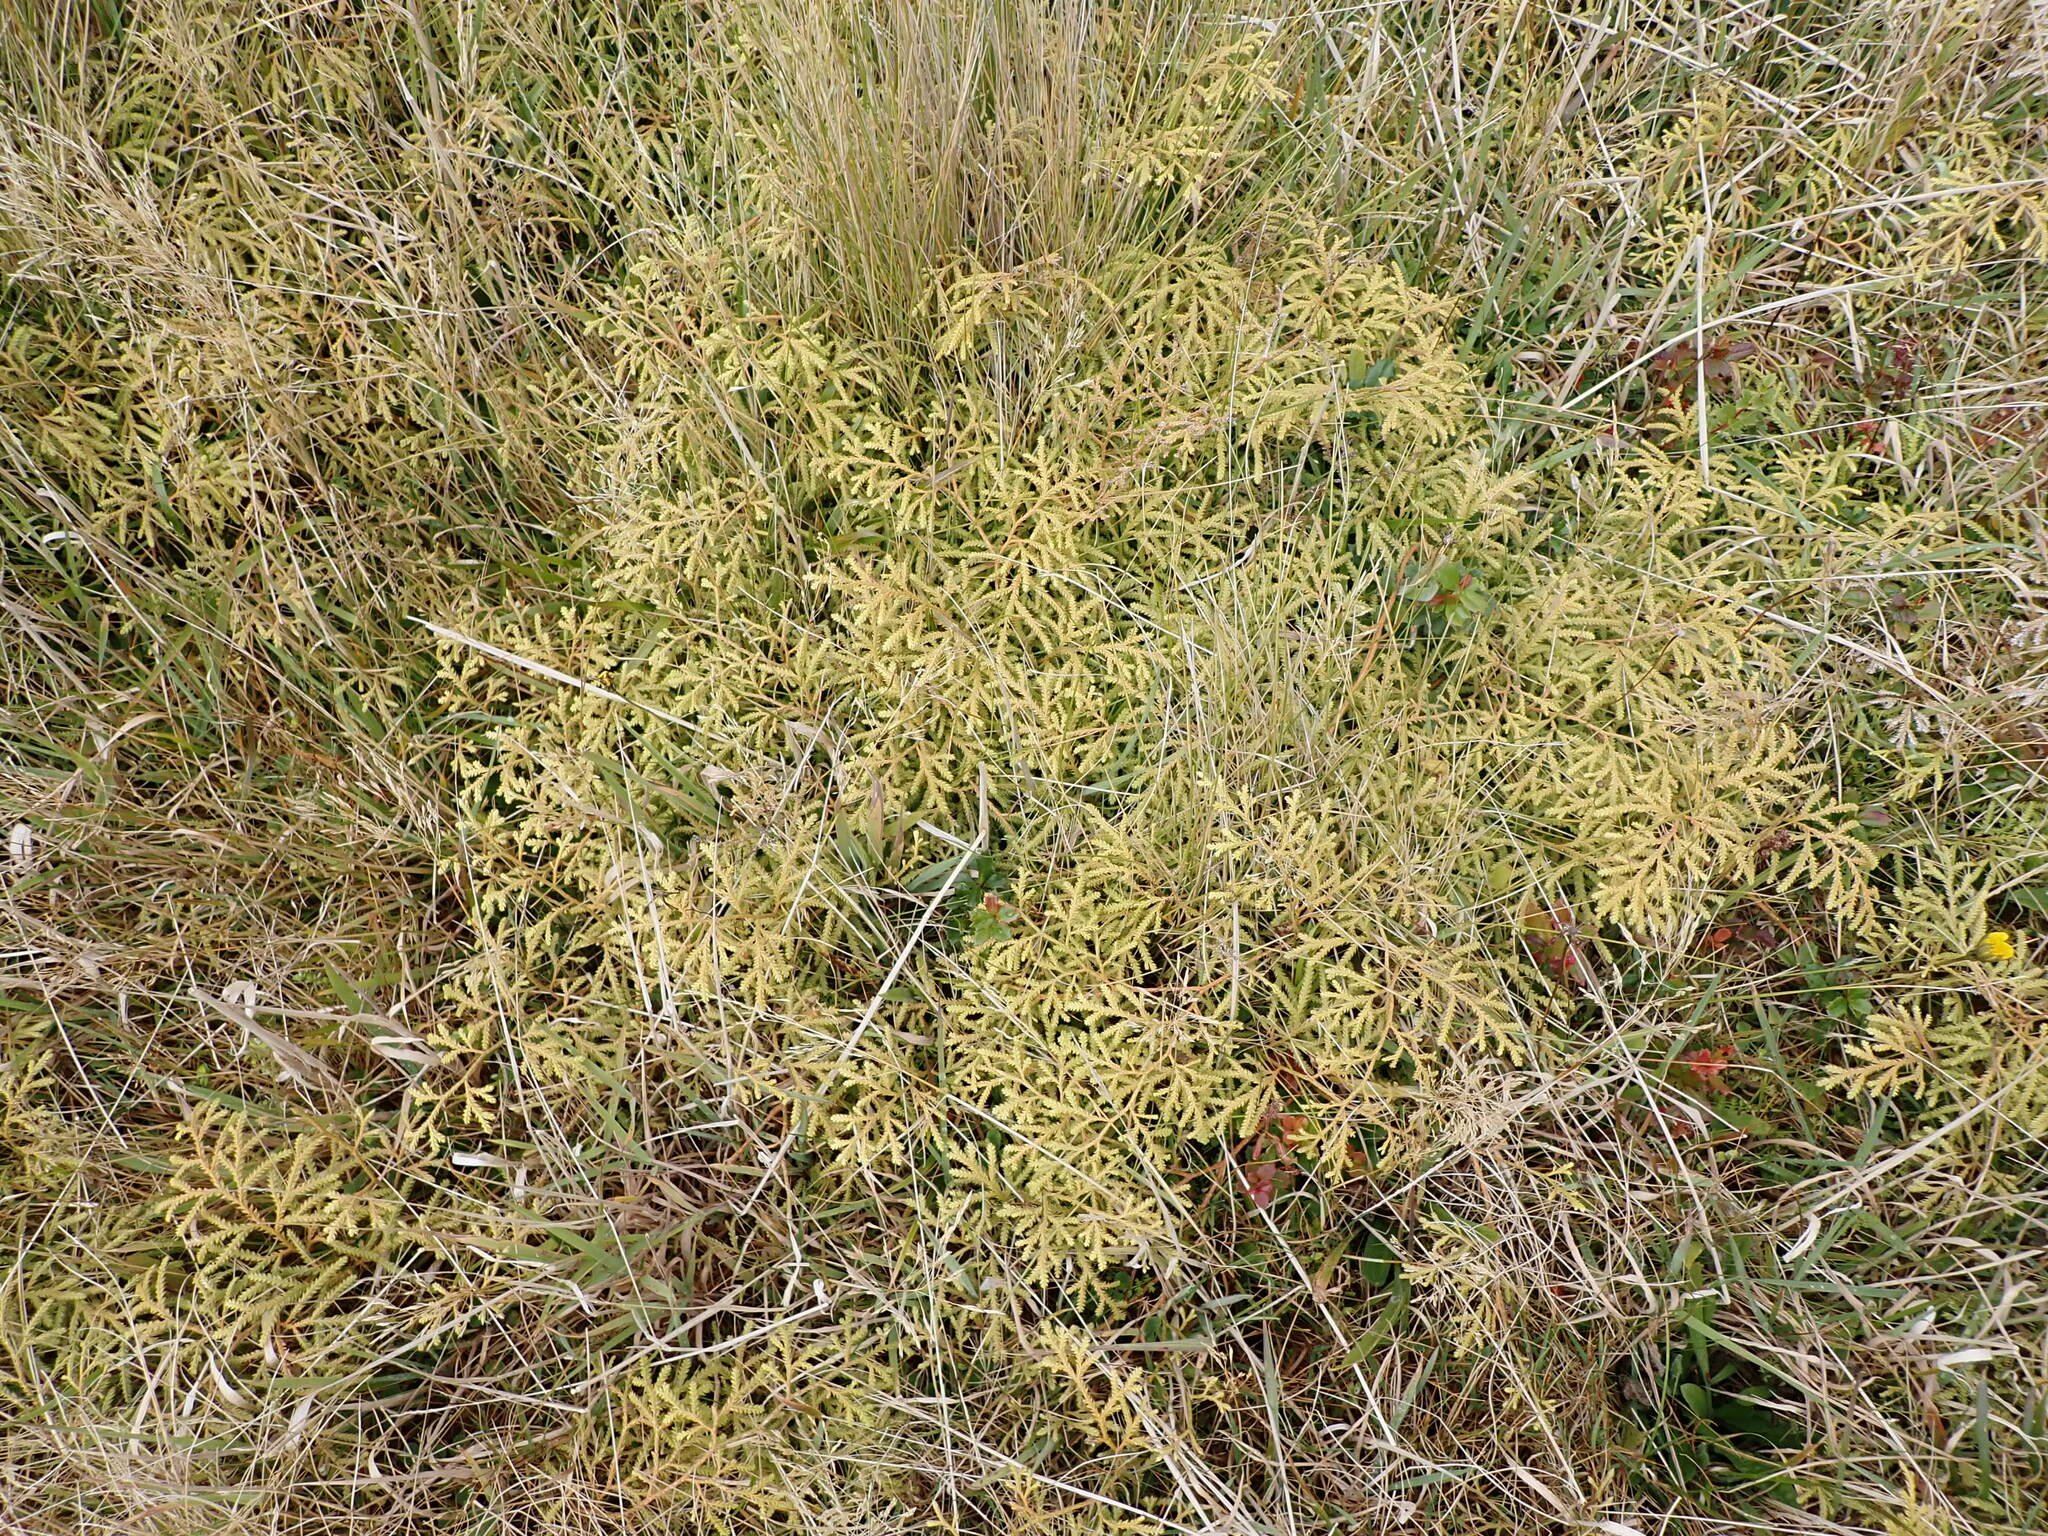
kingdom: Plantae
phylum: Tracheophyta
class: Lycopodiopsida
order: Lycopodiales
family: Lycopodiaceae
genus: Lycopodium
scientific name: Lycopodium volubile
